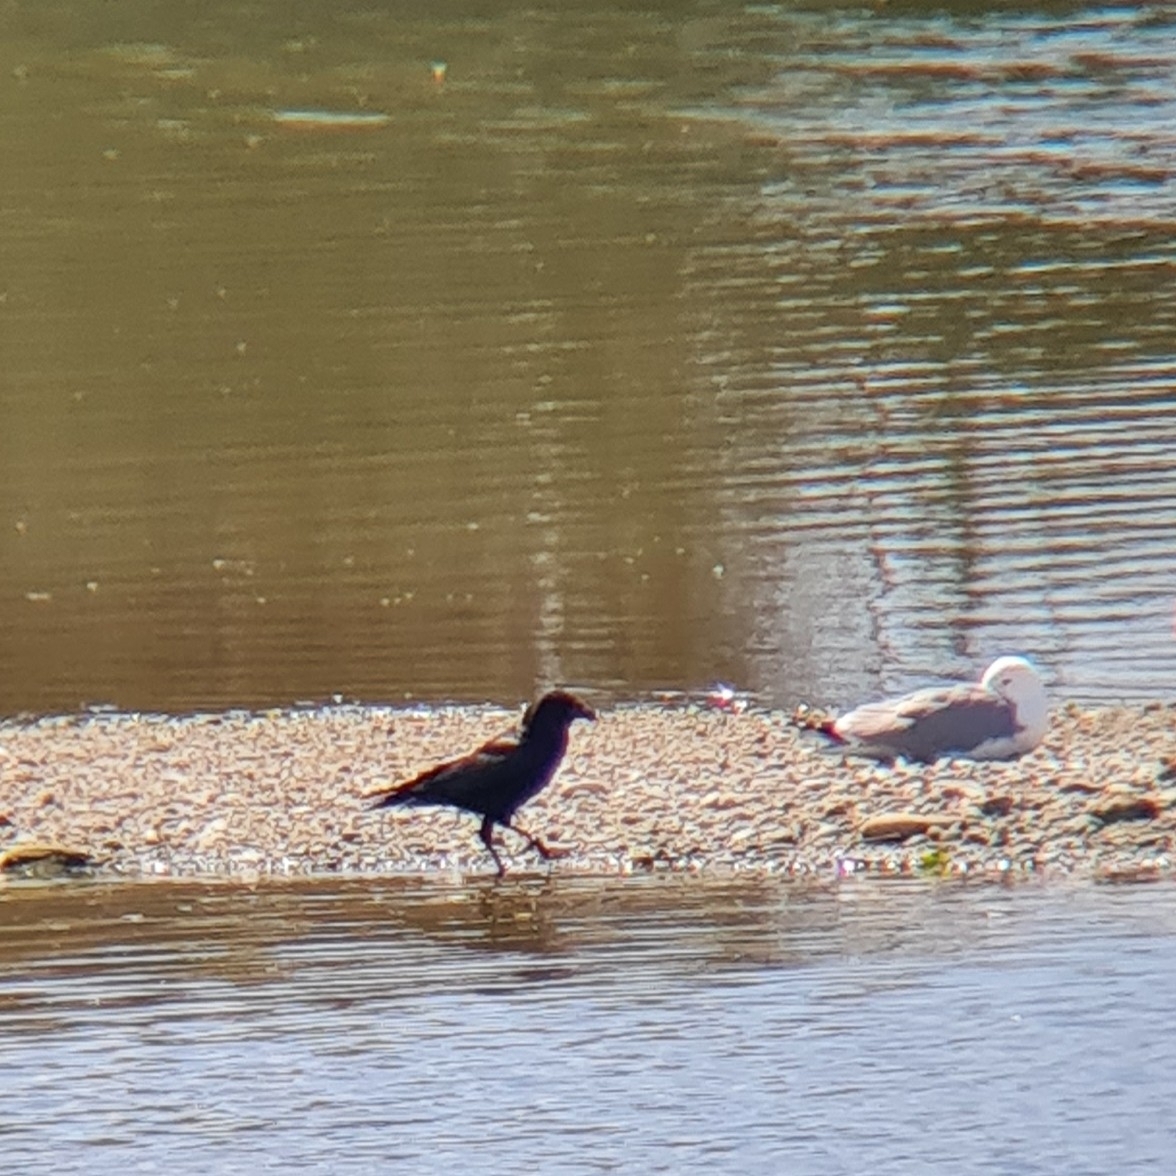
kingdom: Animalia
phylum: Chordata
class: Aves
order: Passeriformes
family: Corvidae
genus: Corvus
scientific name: Corvus corone
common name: Carrion crow
